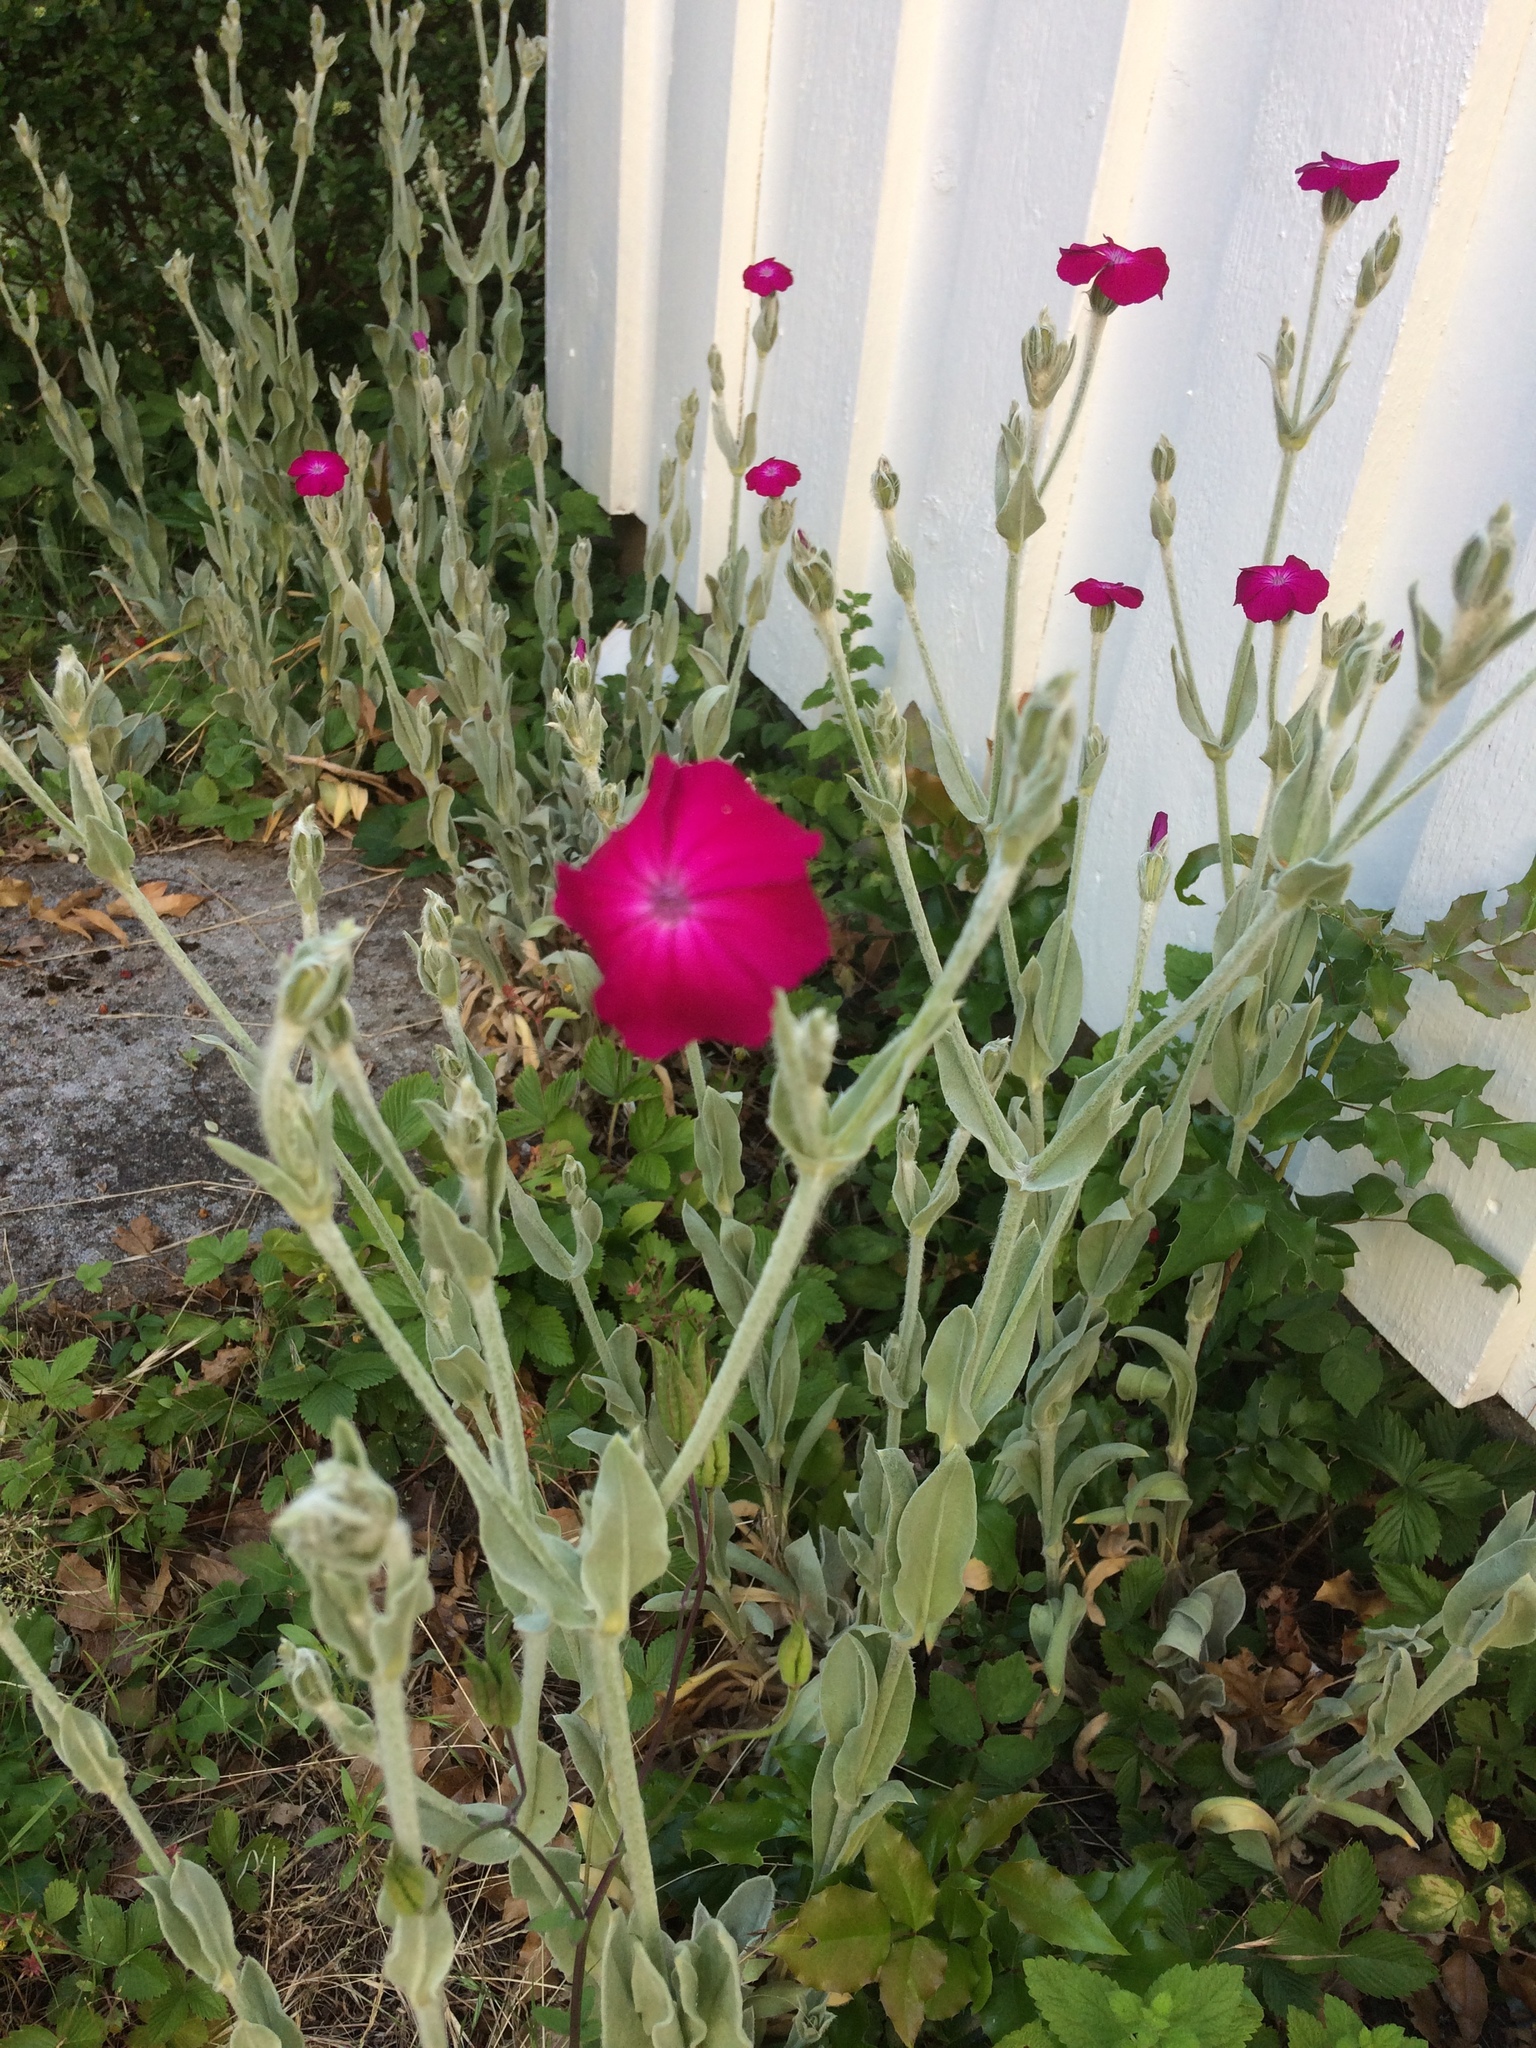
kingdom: Plantae
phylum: Tracheophyta
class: Magnoliopsida
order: Caryophyllales
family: Caryophyllaceae
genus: Silene
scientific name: Silene coronaria
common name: Rose campion
